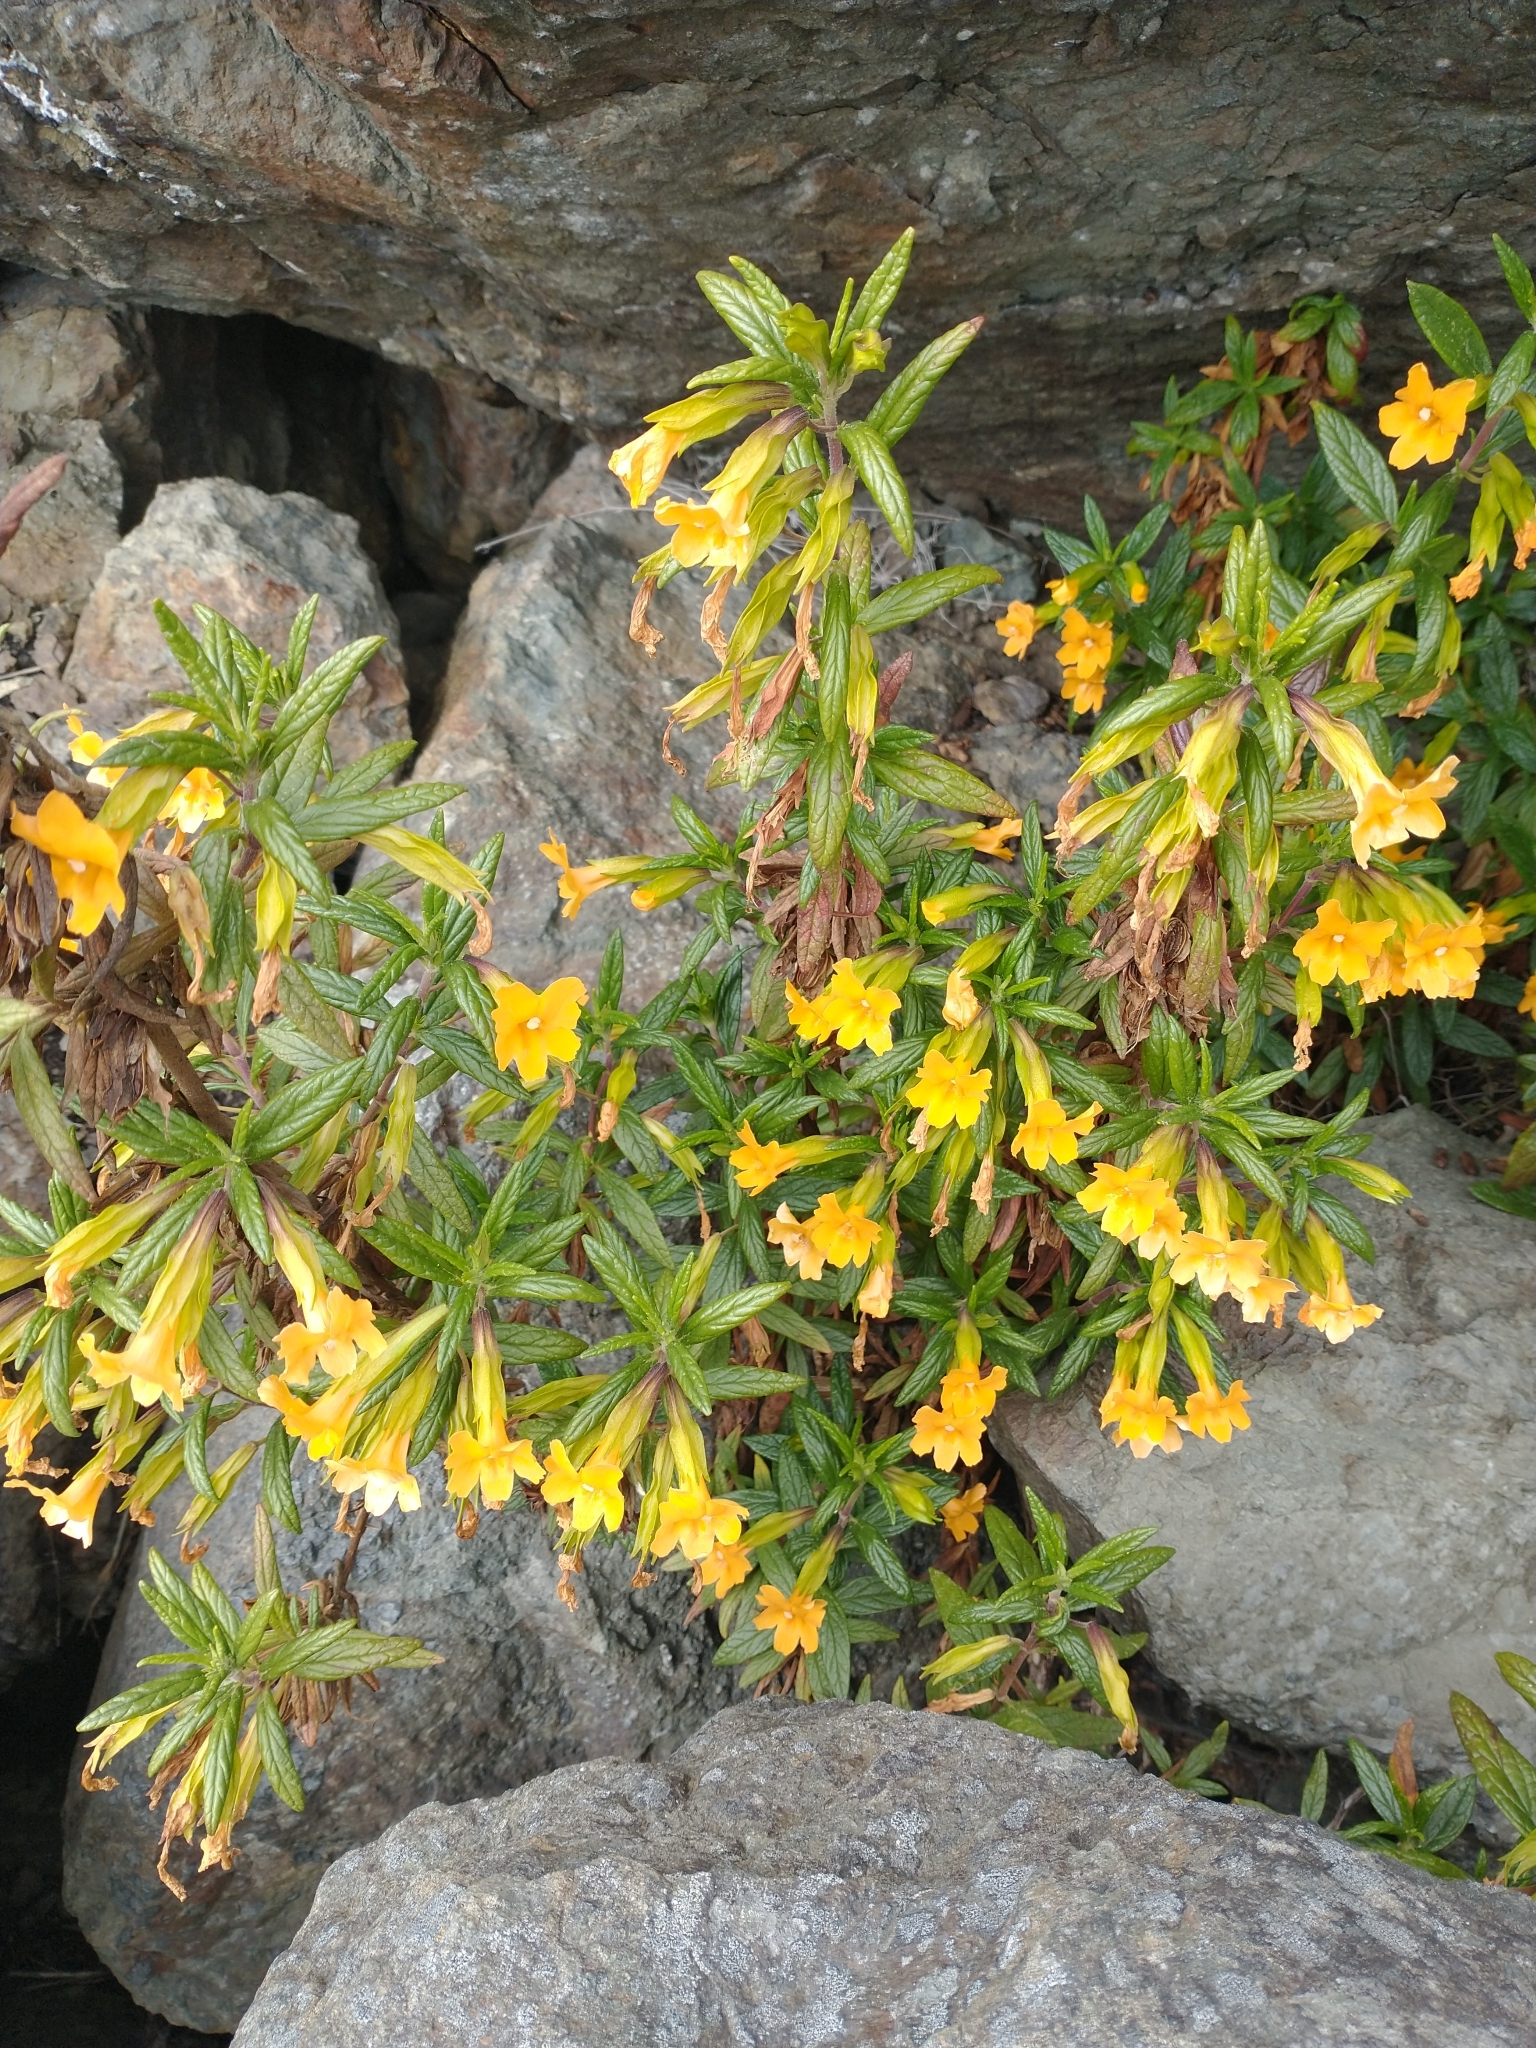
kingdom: Plantae
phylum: Tracheophyta
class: Magnoliopsida
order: Lamiales
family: Phrymaceae
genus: Diplacus
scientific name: Diplacus aurantiacus
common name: Bush monkey-flower
